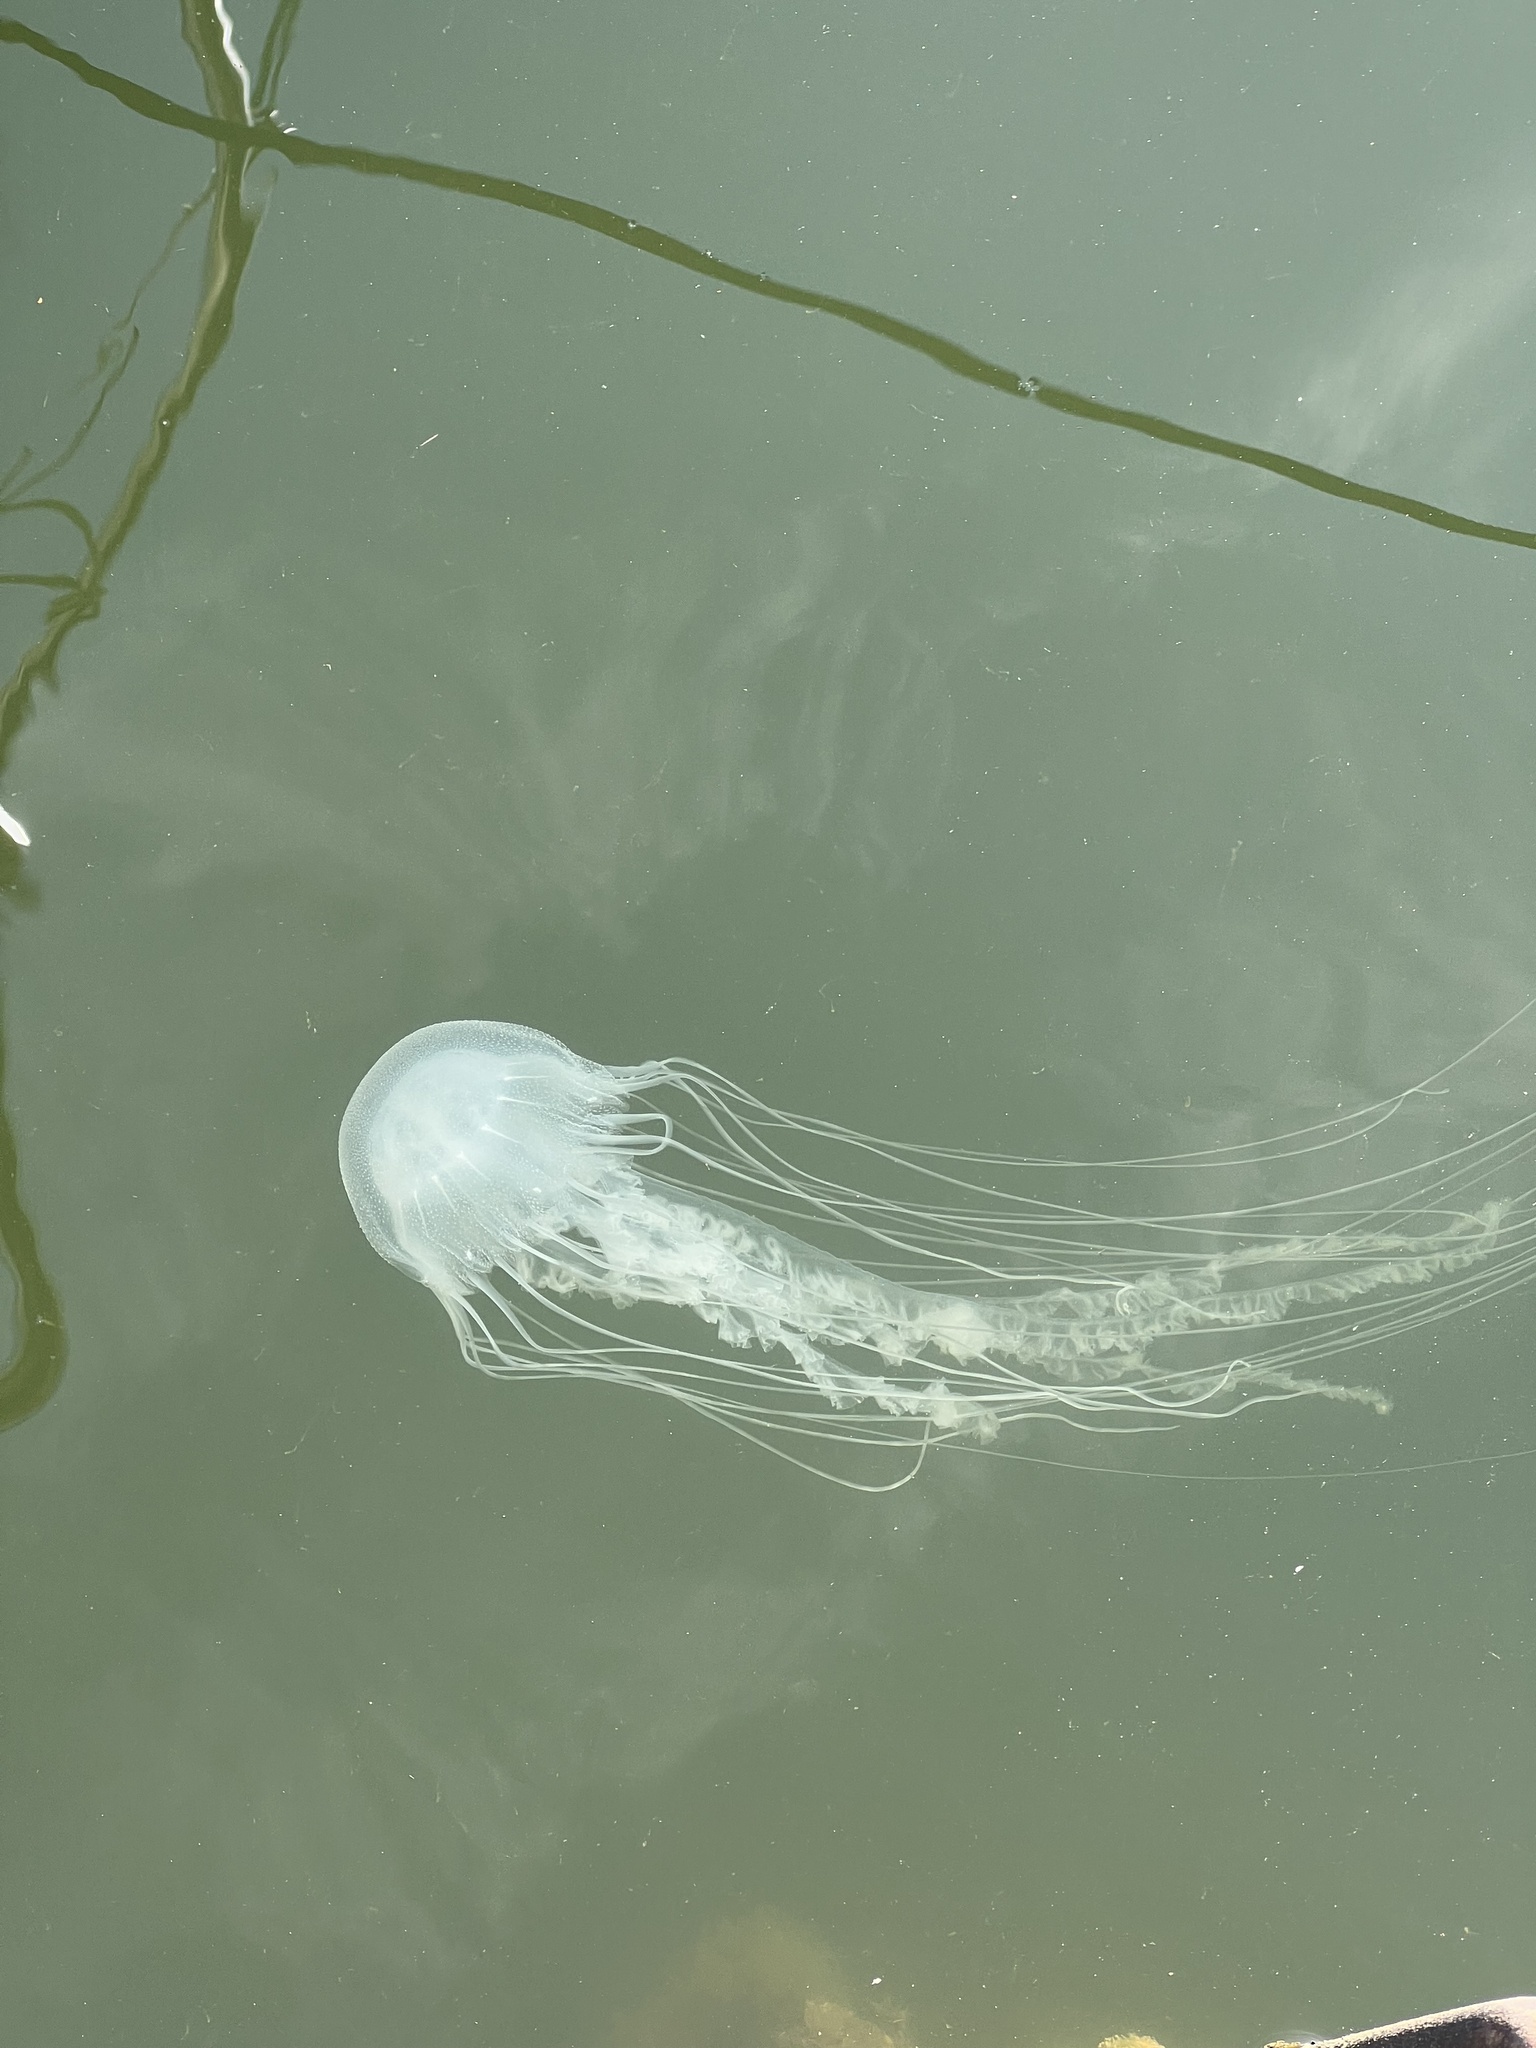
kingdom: Animalia
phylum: Cnidaria
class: Scyphozoa
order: Semaeostomeae
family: Pelagiidae
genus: Chrysaora
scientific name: Chrysaora chesapeakei
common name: Bay nettle
